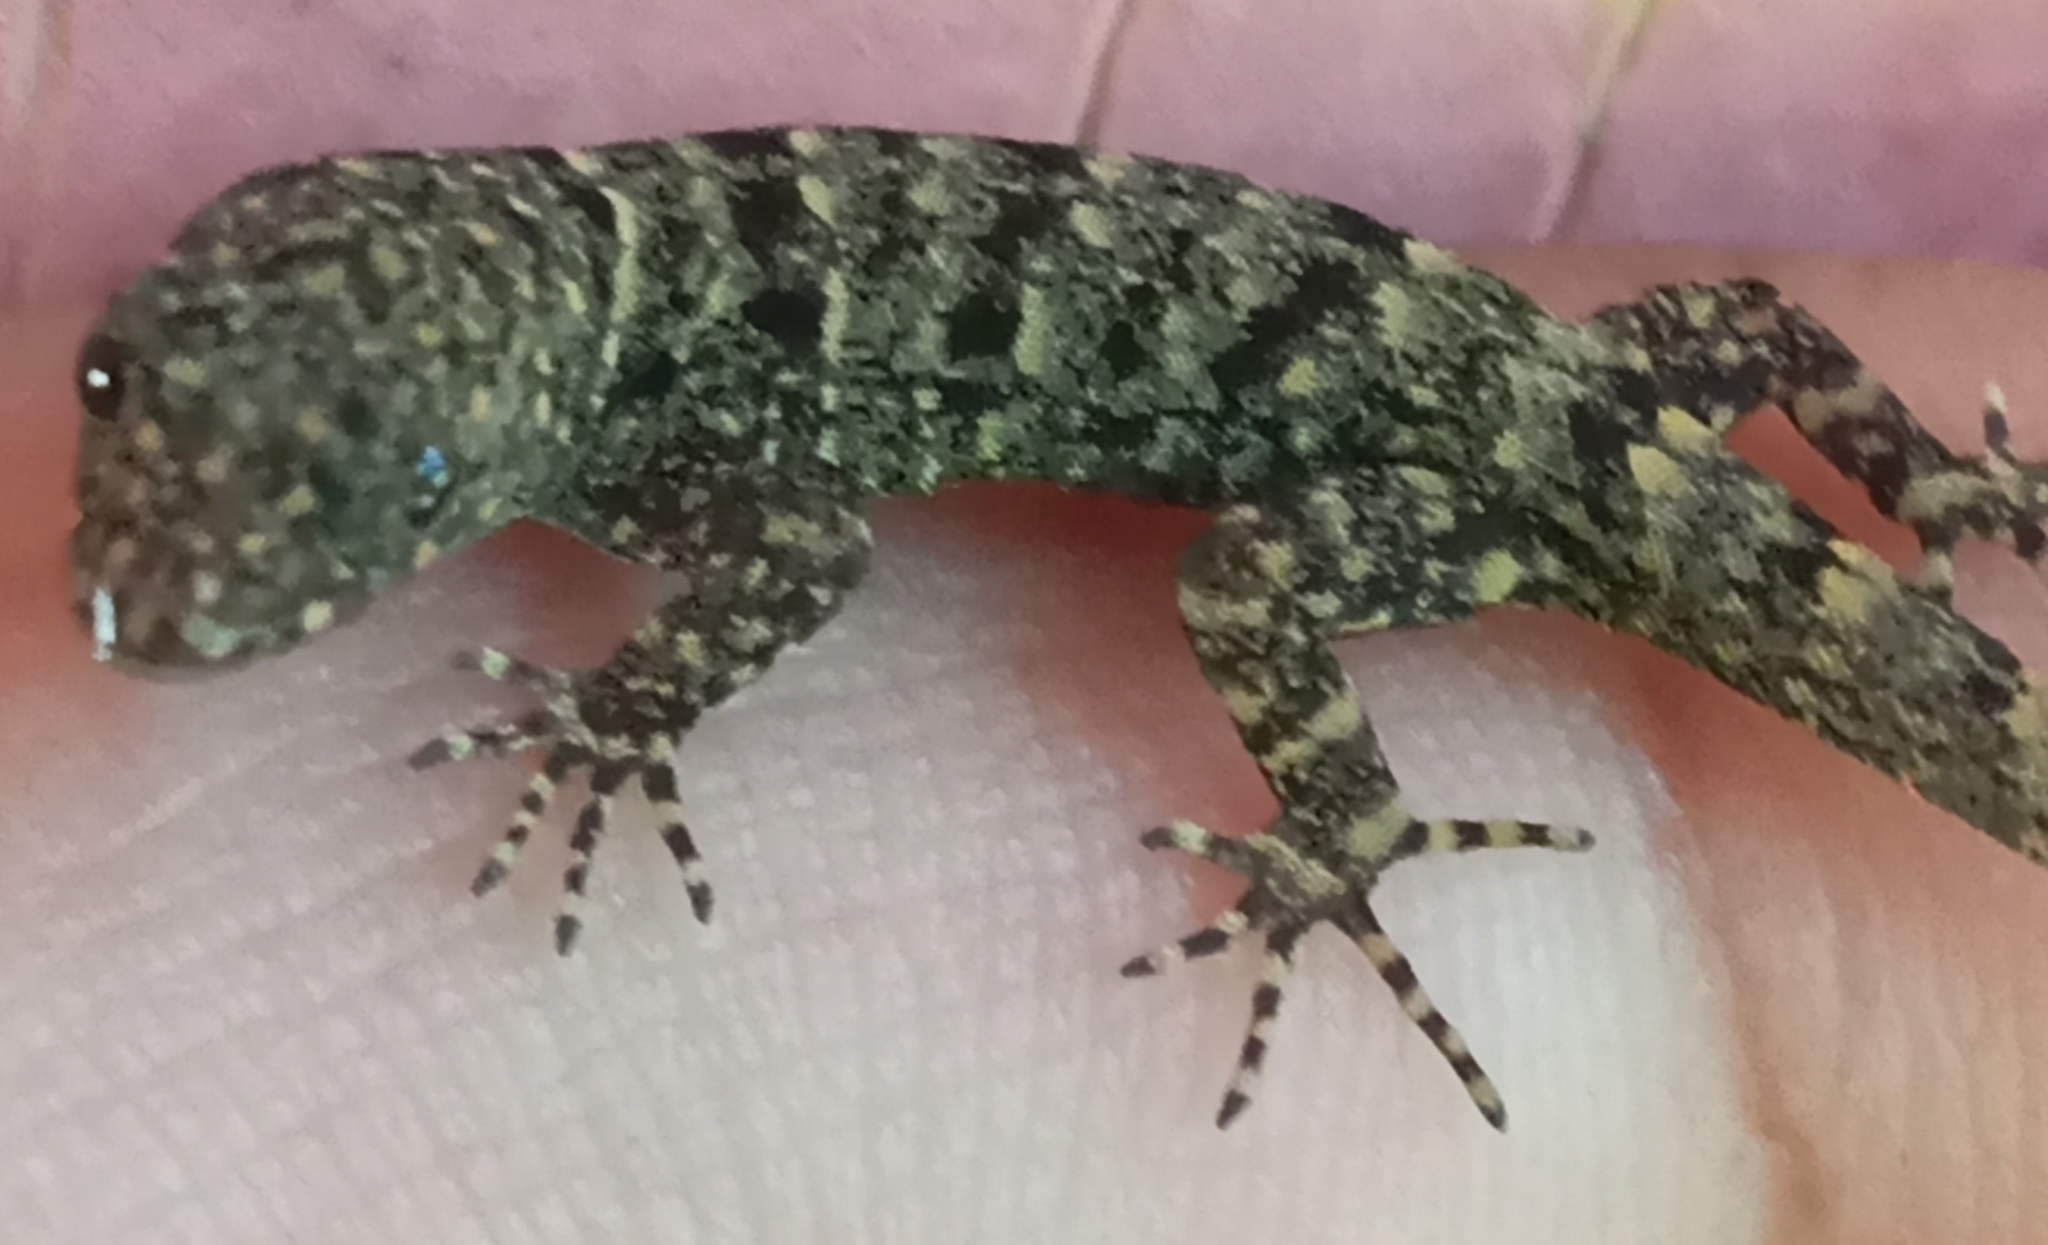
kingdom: Animalia
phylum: Chordata
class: Squamata
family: Sphaerodactylidae
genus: Gonatodes
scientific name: Gonatodes albogularis
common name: Yellow-headed gecko
